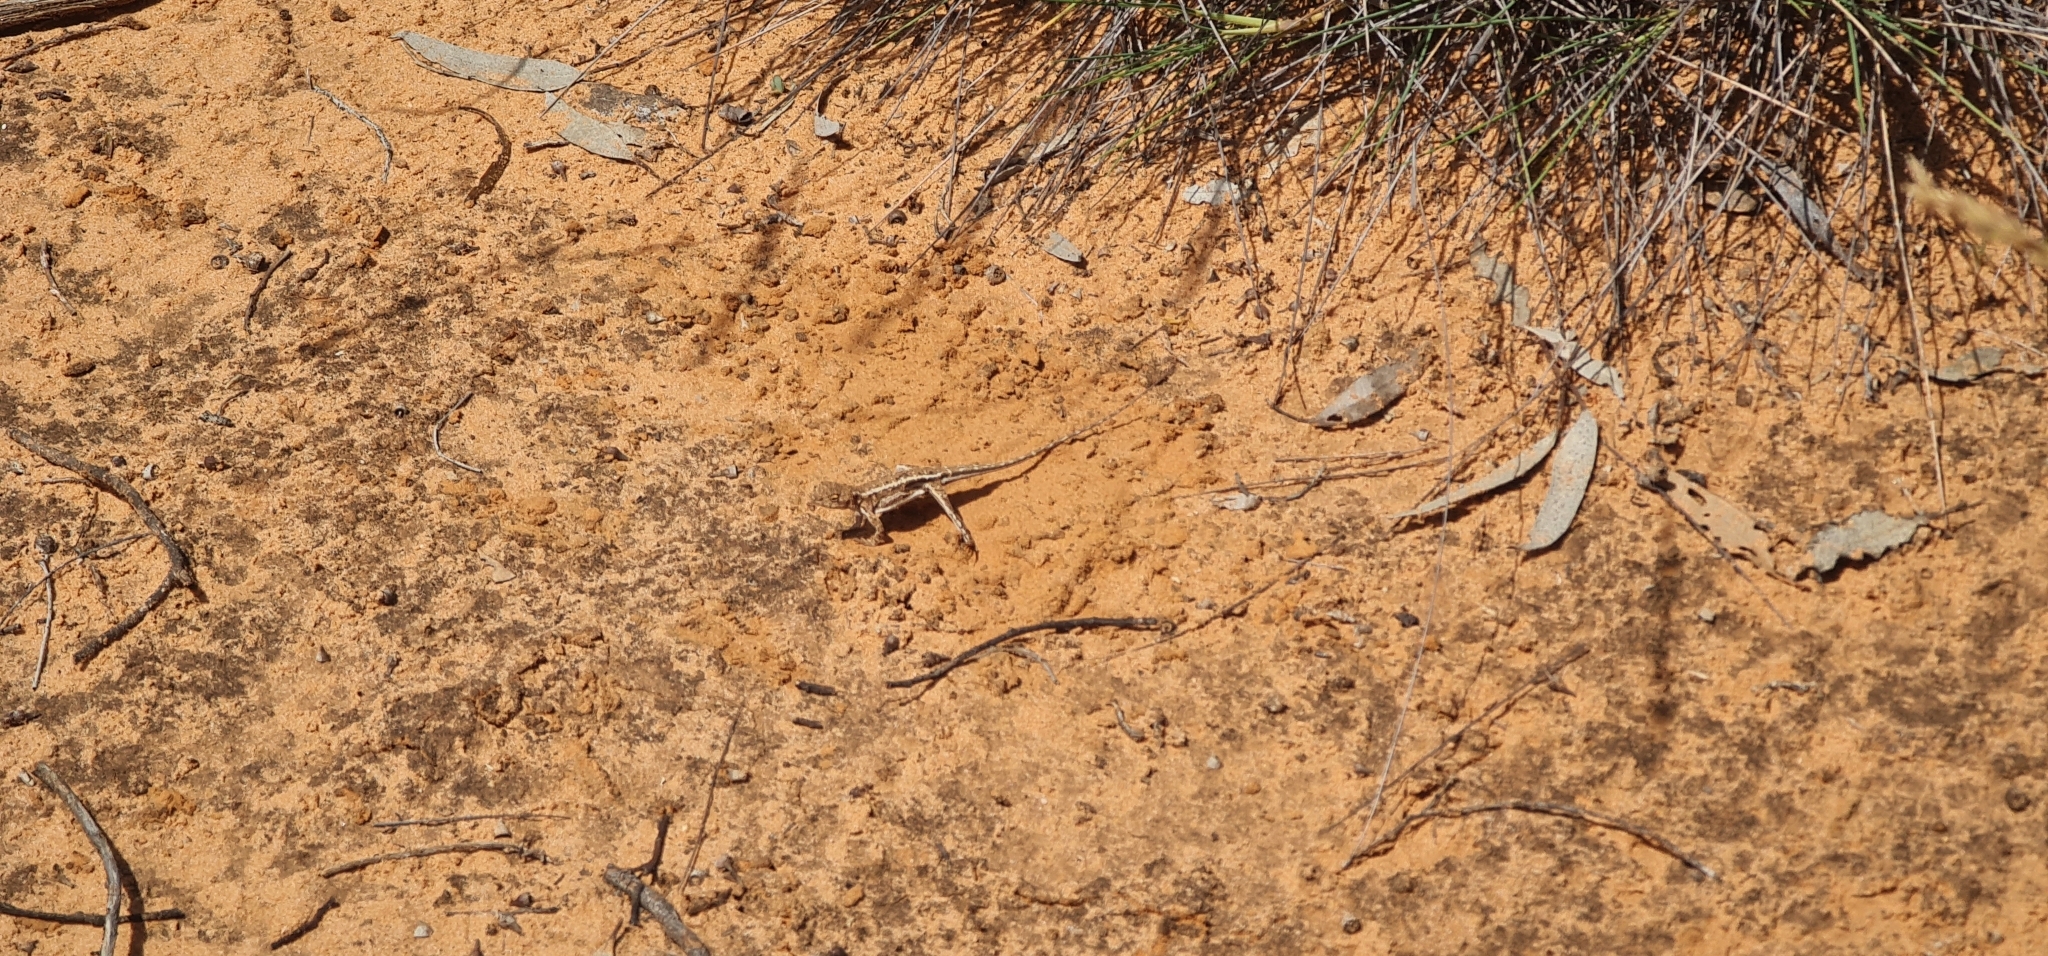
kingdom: Animalia
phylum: Chordata
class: Squamata
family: Agamidae
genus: Ctenophorus
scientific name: Ctenophorus spinodomus
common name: Eastern mallee dragon
